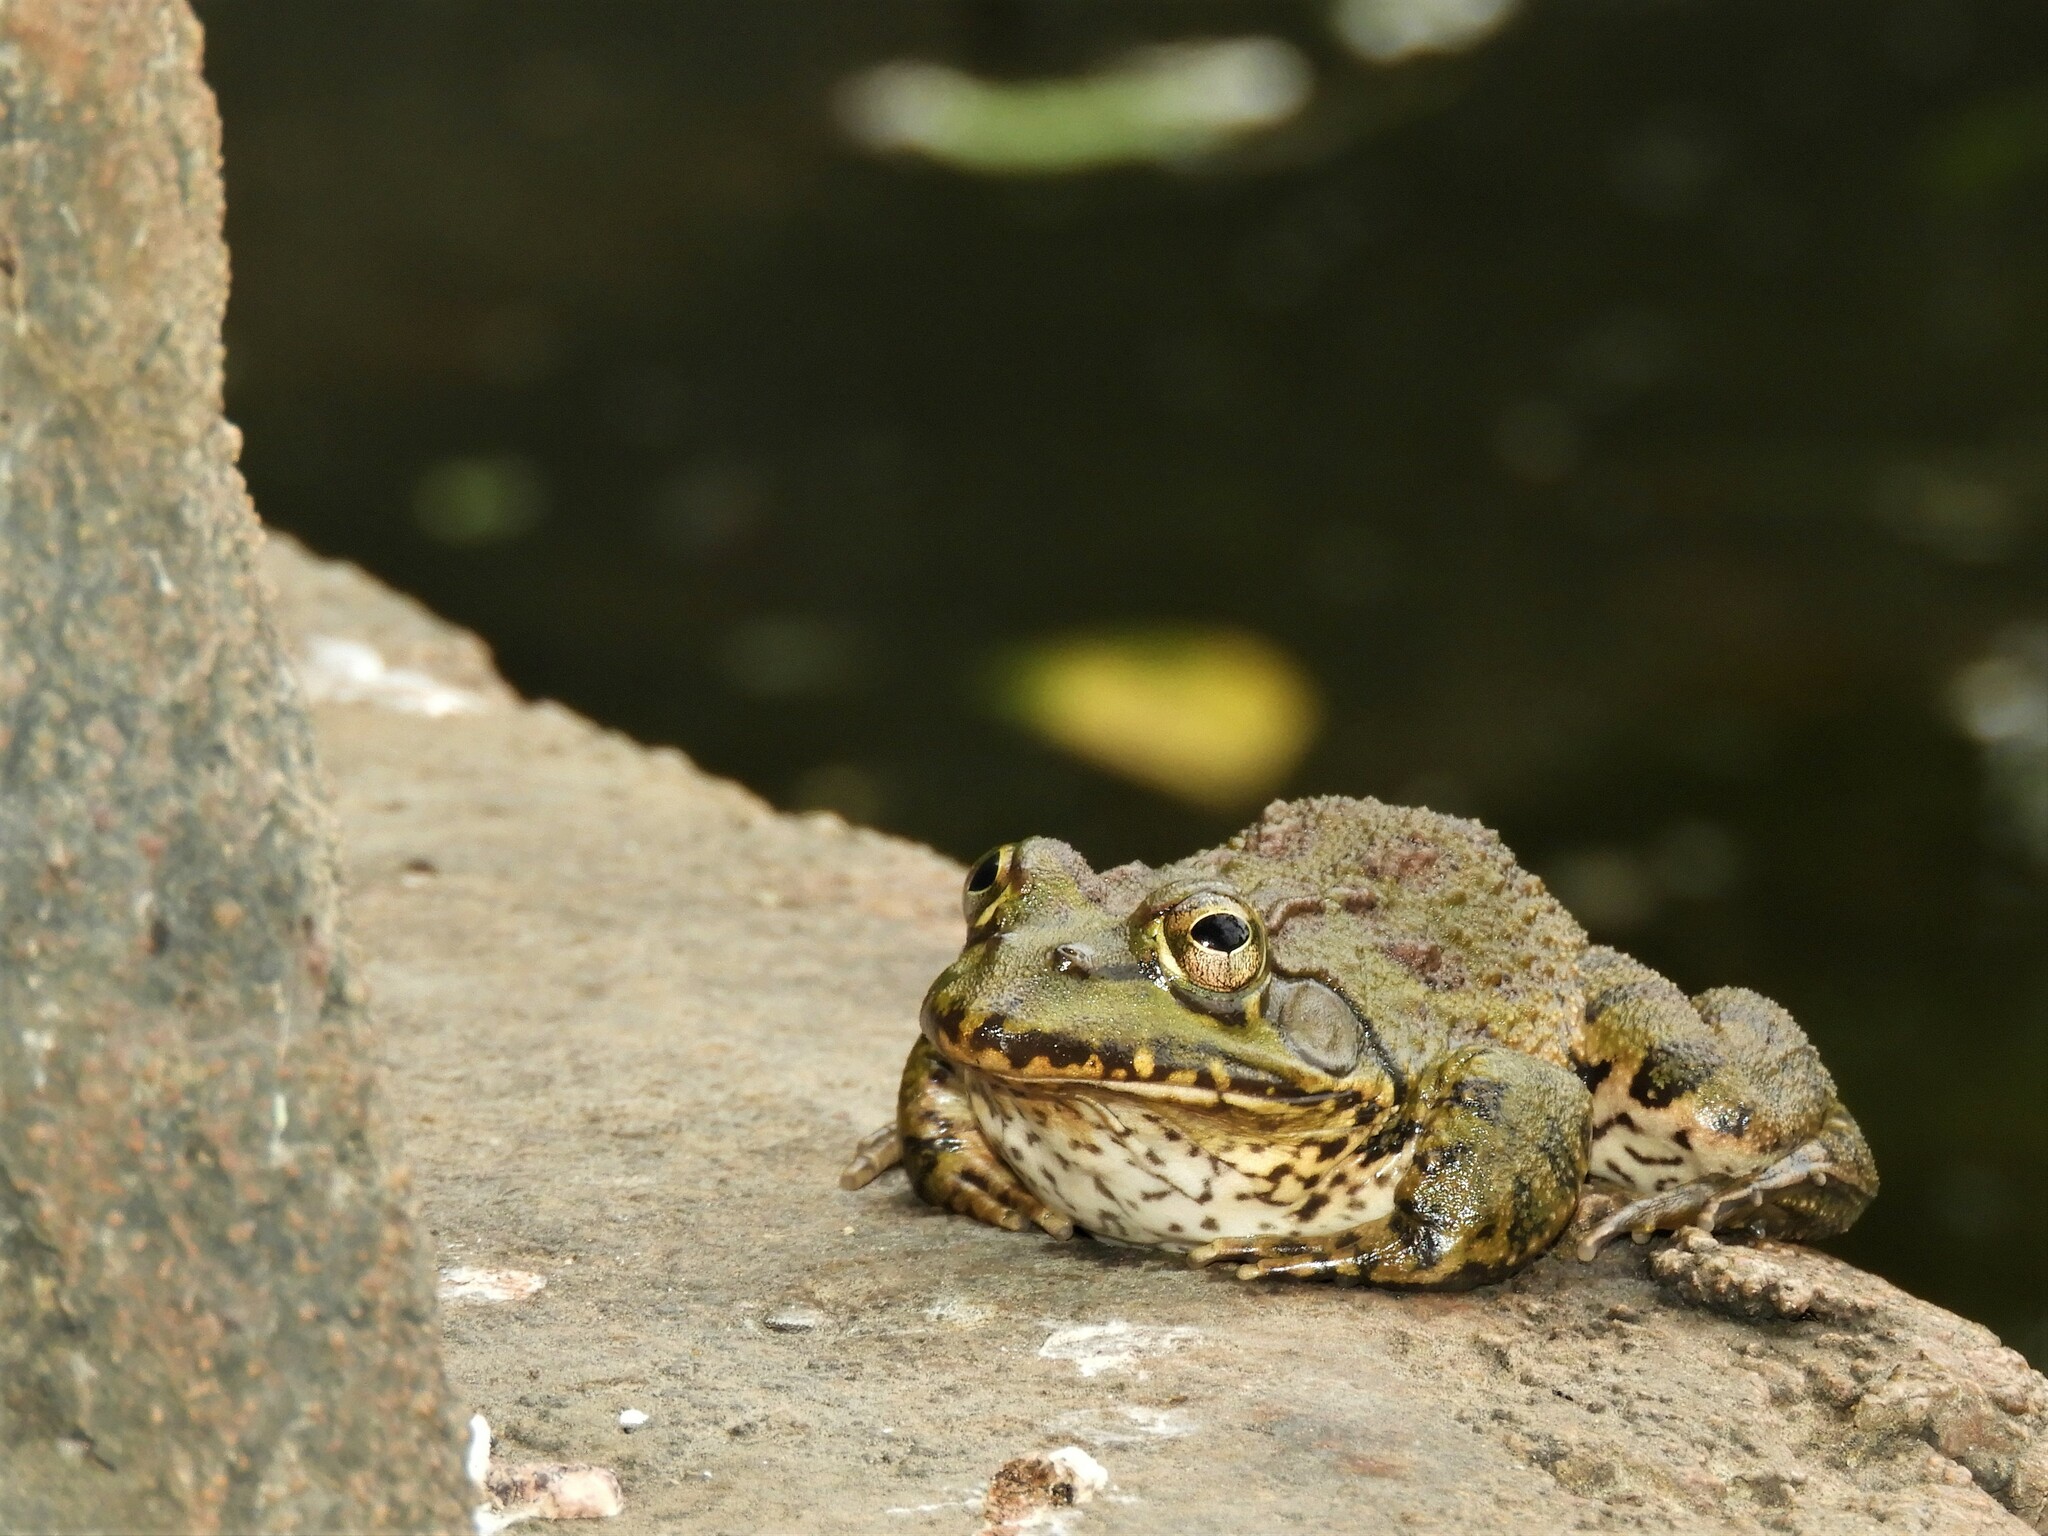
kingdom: Animalia
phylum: Chordata
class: Amphibia
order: Anura
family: Pyxicephalidae
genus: Amietia
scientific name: Amietia poyntoni
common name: Poynton's river frog
